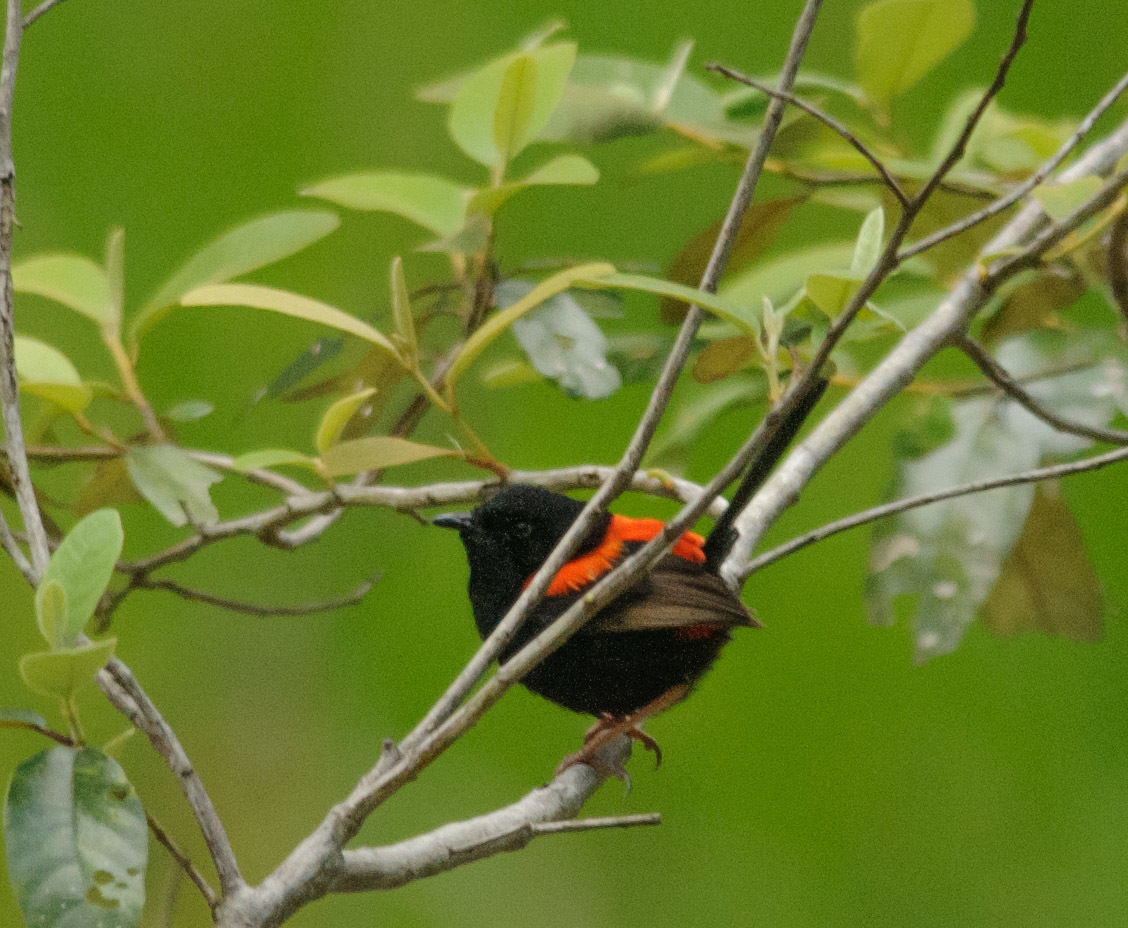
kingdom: Animalia
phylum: Chordata
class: Aves
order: Passeriformes
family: Maluridae
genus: Malurus
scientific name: Malurus melanocephalus
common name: Red-backed fairywren
